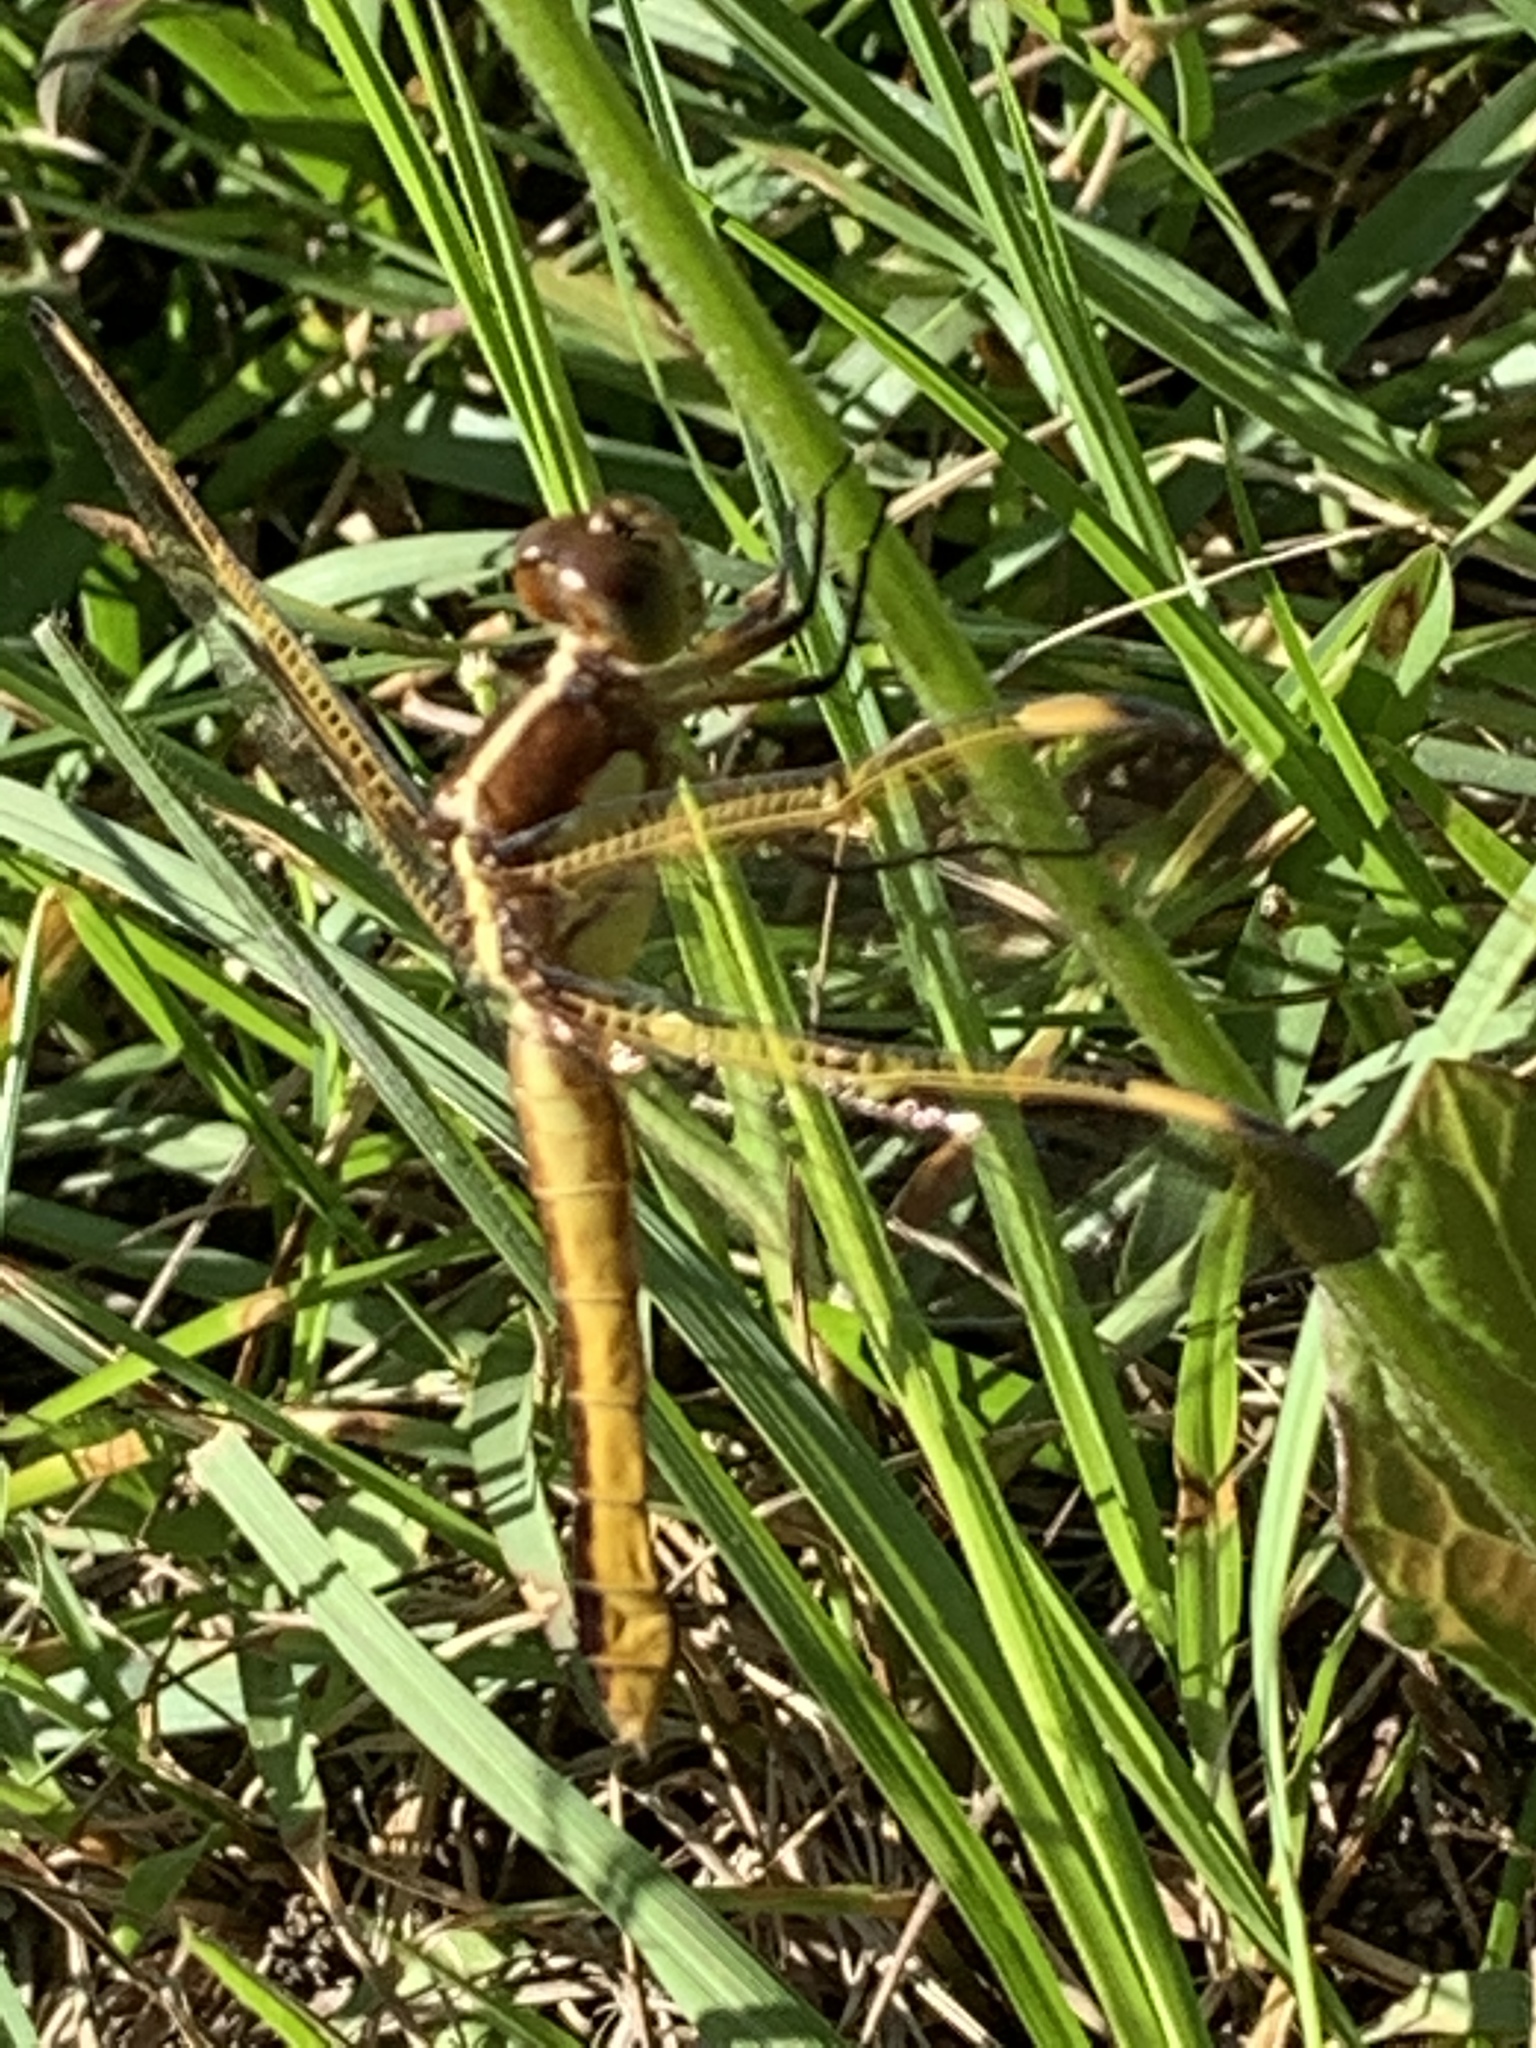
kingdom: Animalia
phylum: Arthropoda
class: Insecta
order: Odonata
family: Libellulidae
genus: Libellula
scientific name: Libellula flavida
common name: Yellow-sided skimmer
